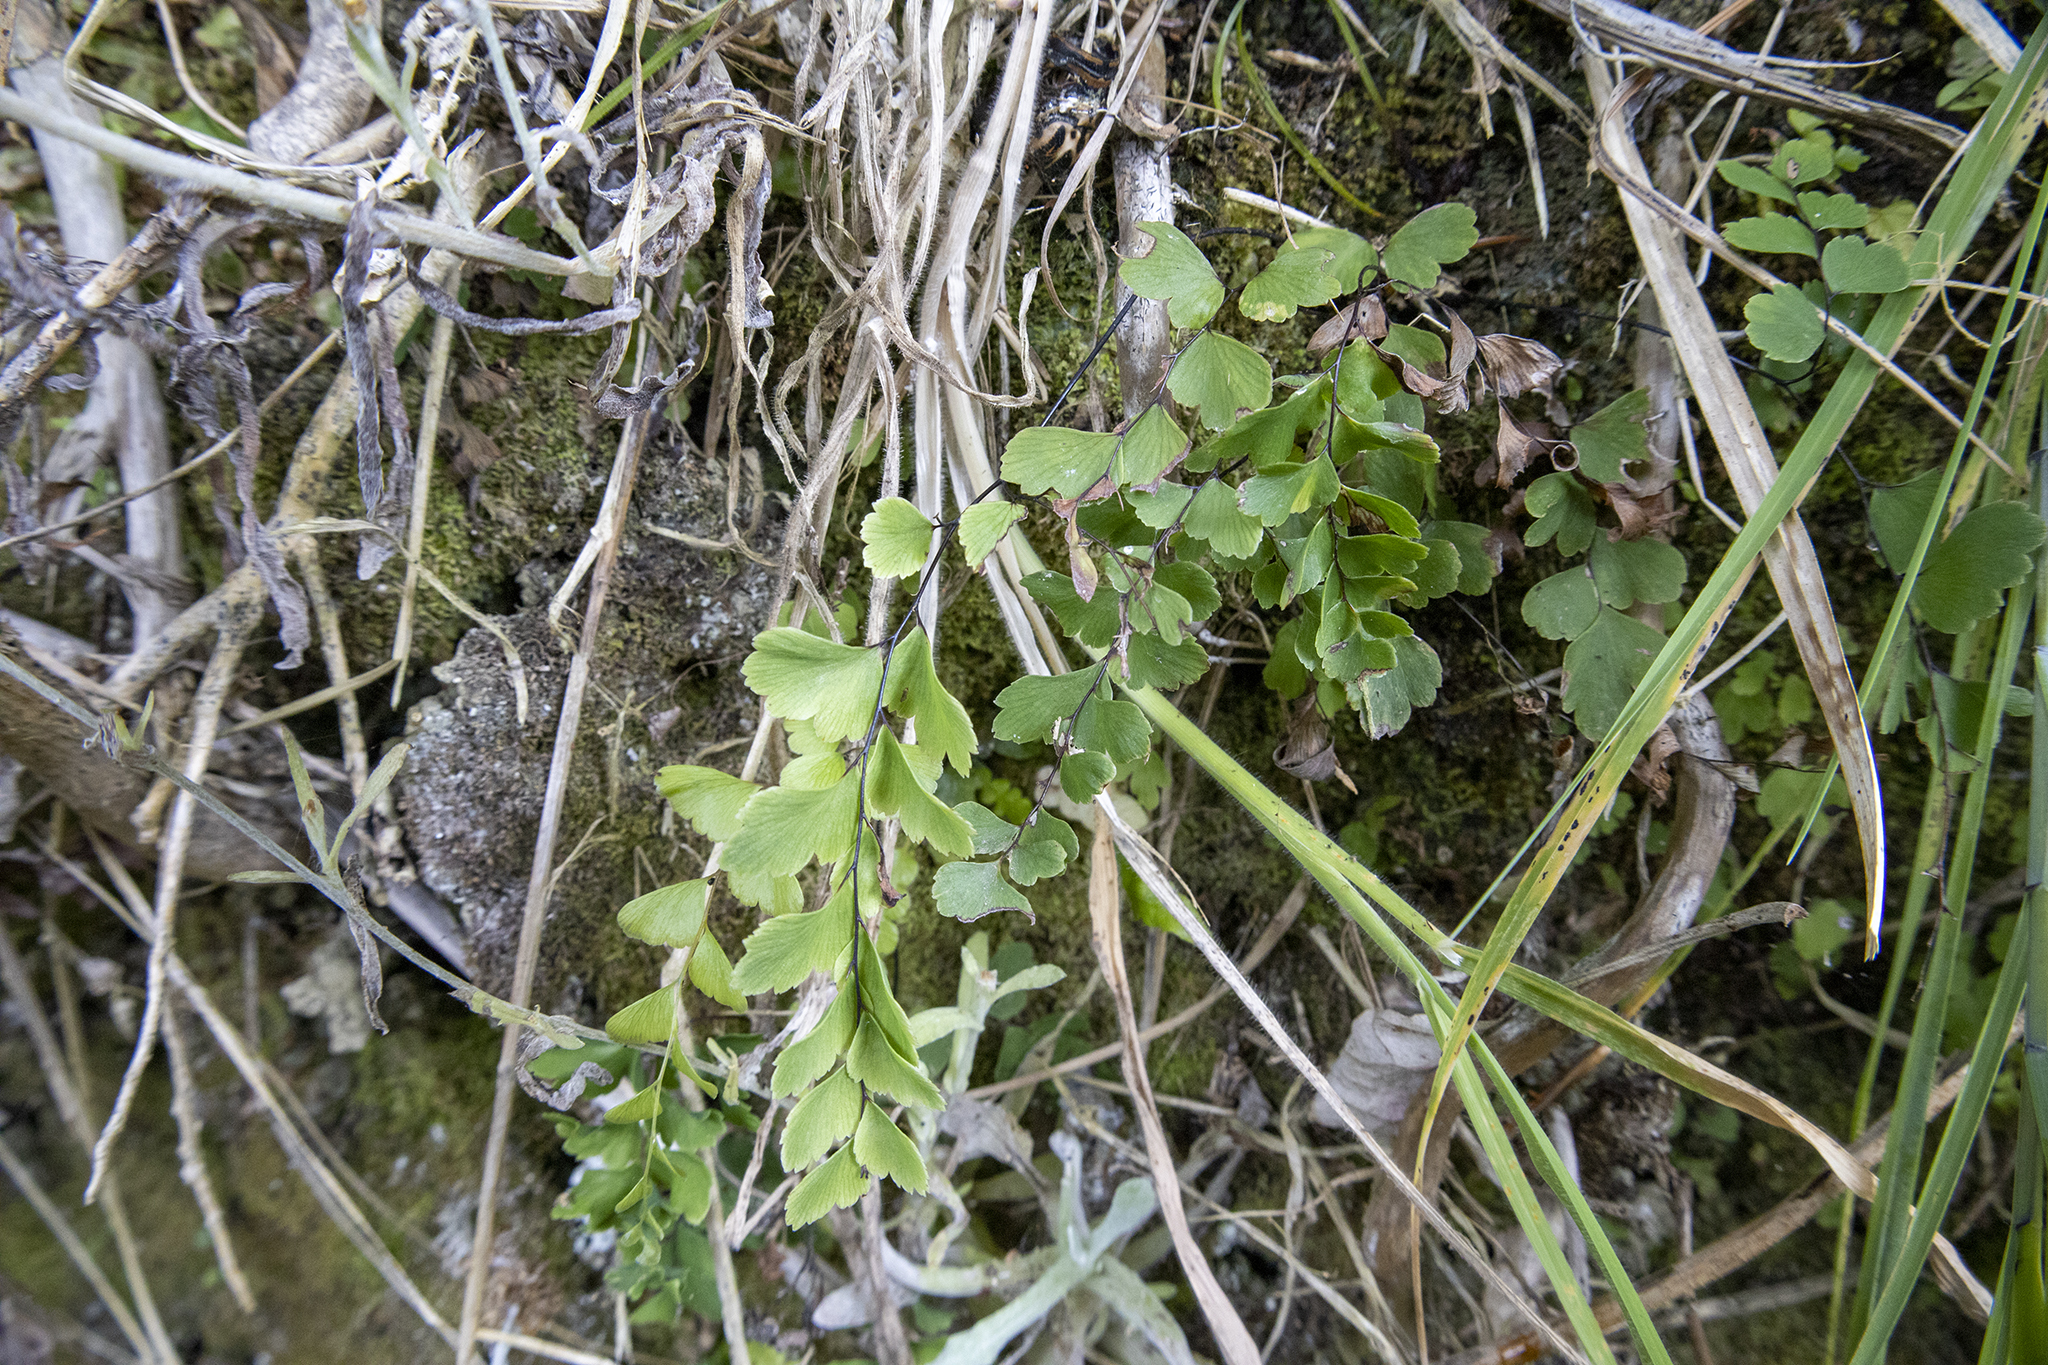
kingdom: Plantae
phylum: Tracheophyta
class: Polypodiopsida
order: Polypodiales
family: Pteridaceae
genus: Adiantum
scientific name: Adiantum cunninghamii
